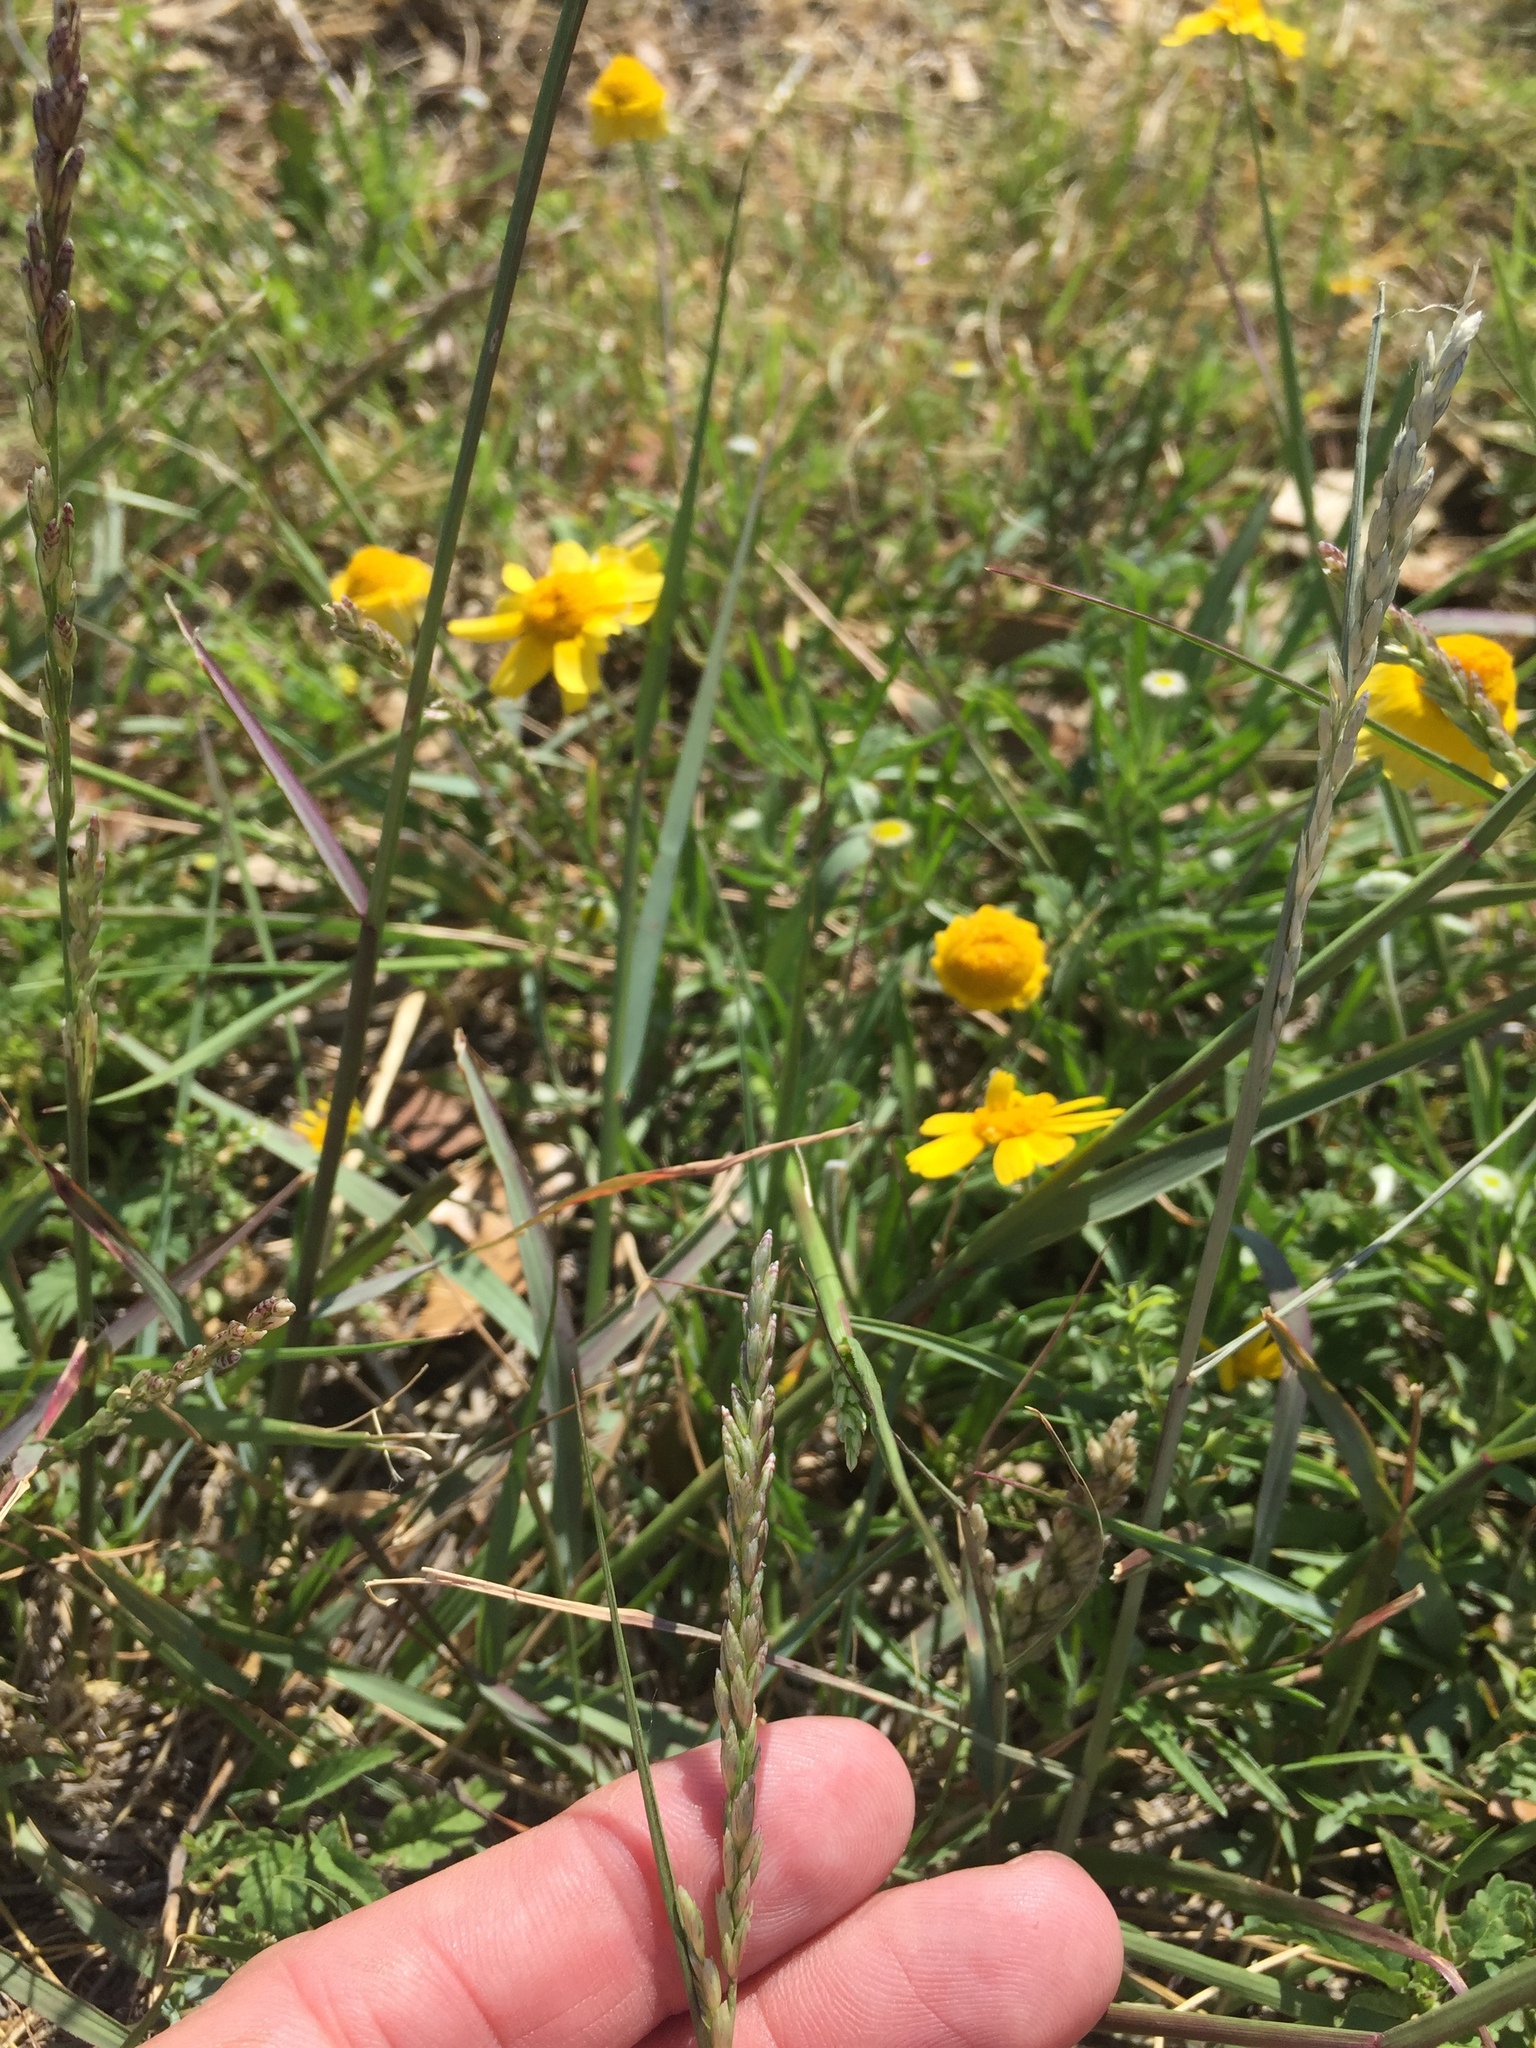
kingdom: Plantae
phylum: Tracheophyta
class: Liliopsida
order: Poales
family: Poaceae
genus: Tridens
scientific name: Tridens albescens
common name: White tridens
